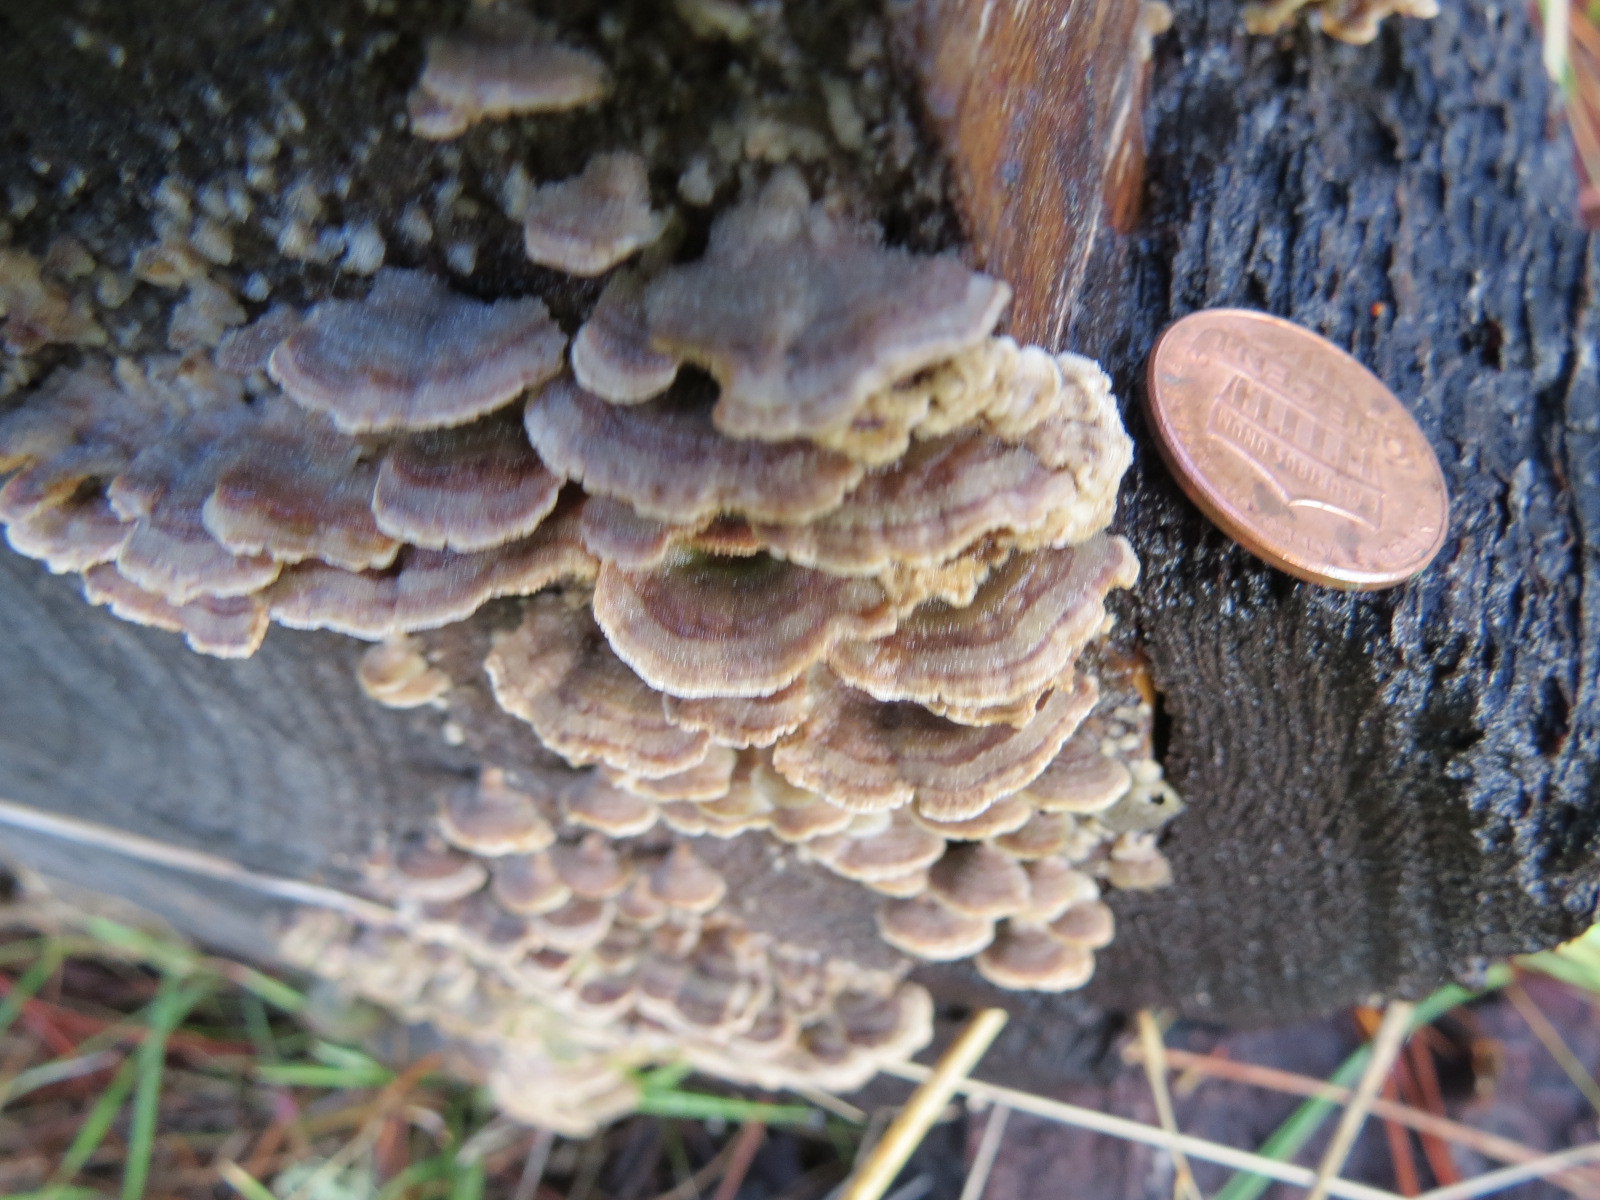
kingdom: Fungi
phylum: Basidiomycota
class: Agaricomycetes
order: Hymenochaetales
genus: Trichaptum
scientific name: Trichaptum abietinum
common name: Purplepore bracket
